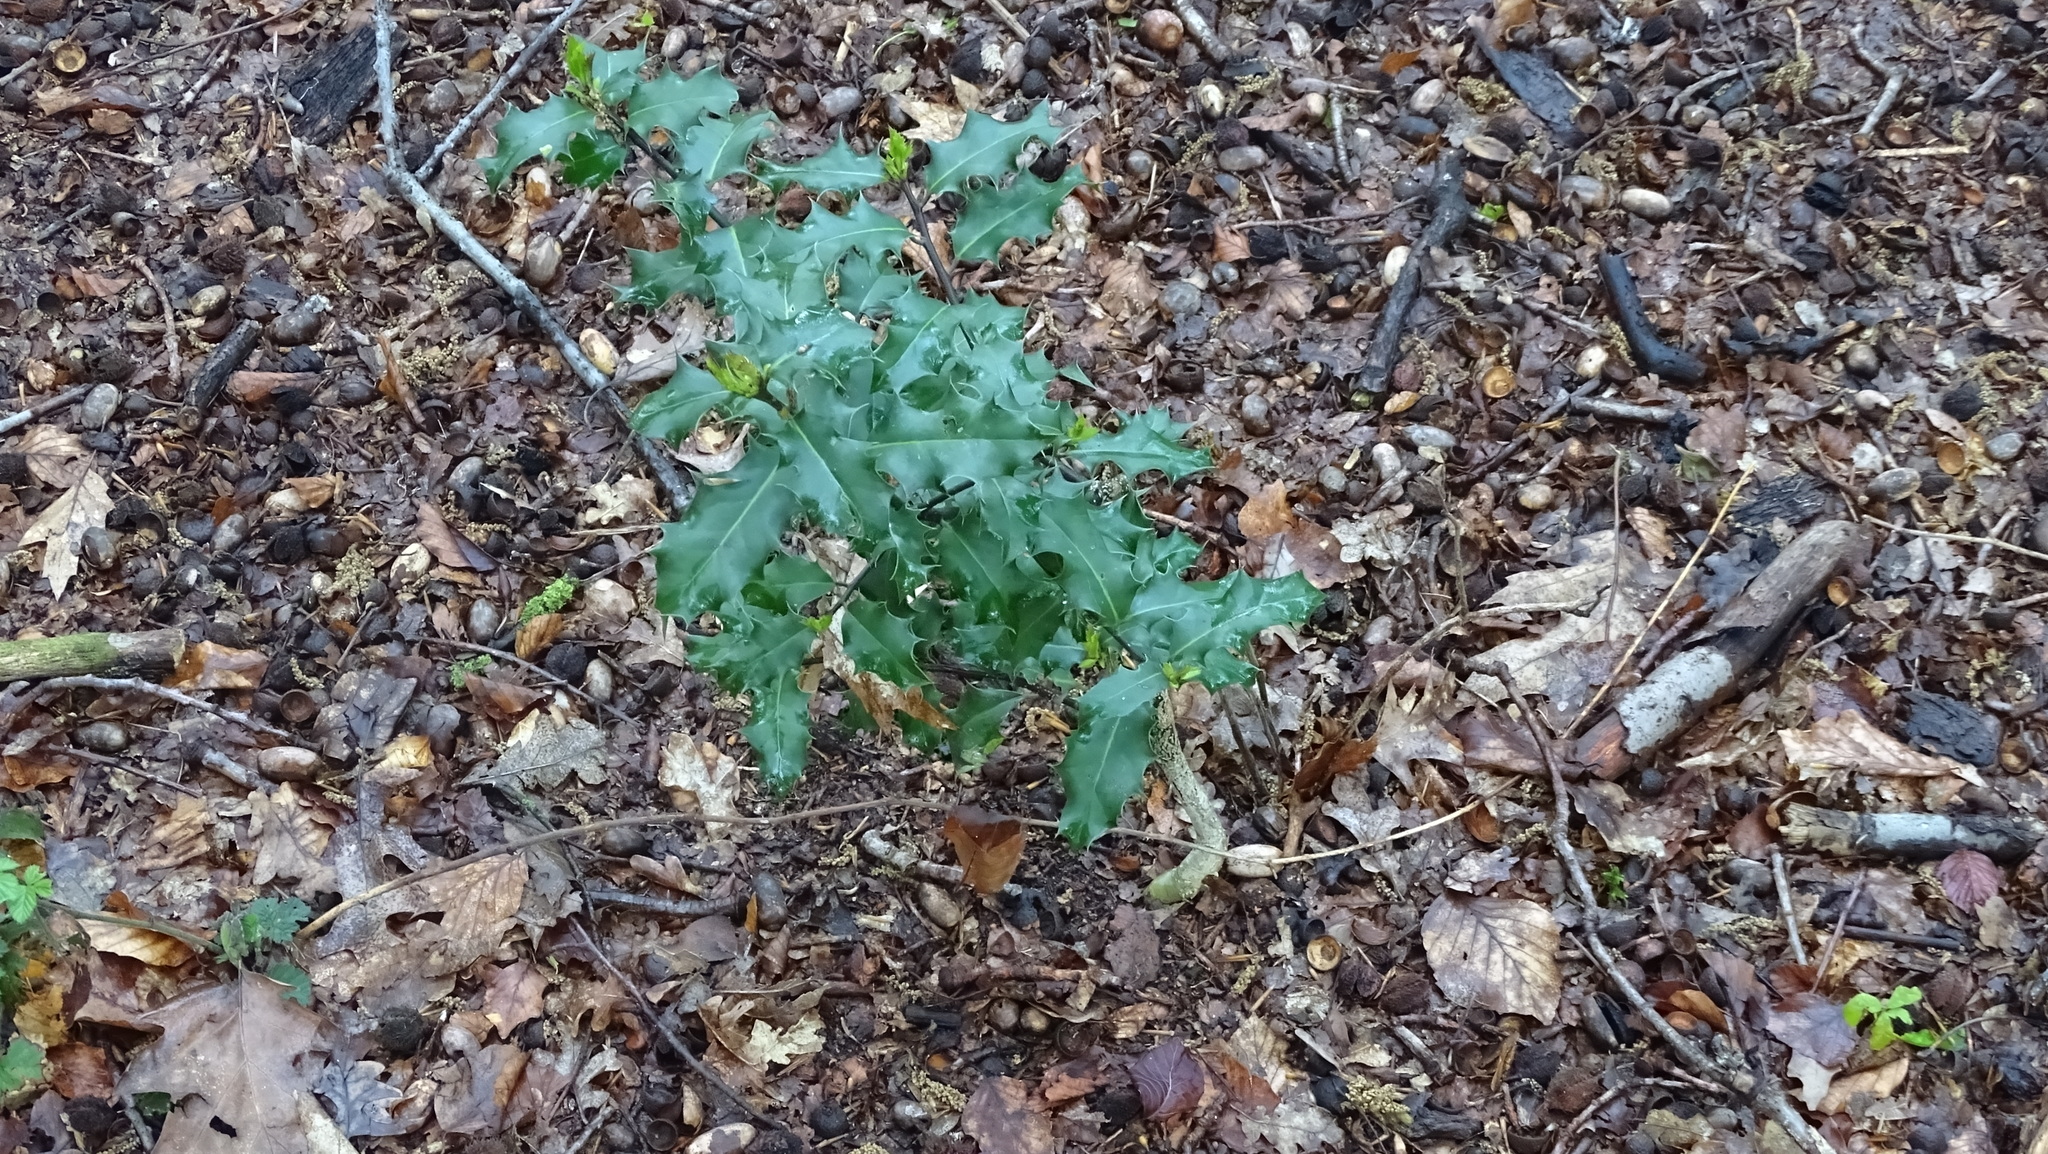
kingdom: Plantae
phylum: Tracheophyta
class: Magnoliopsida
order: Aquifoliales
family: Aquifoliaceae
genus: Ilex
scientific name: Ilex aquifolium
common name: English holly
